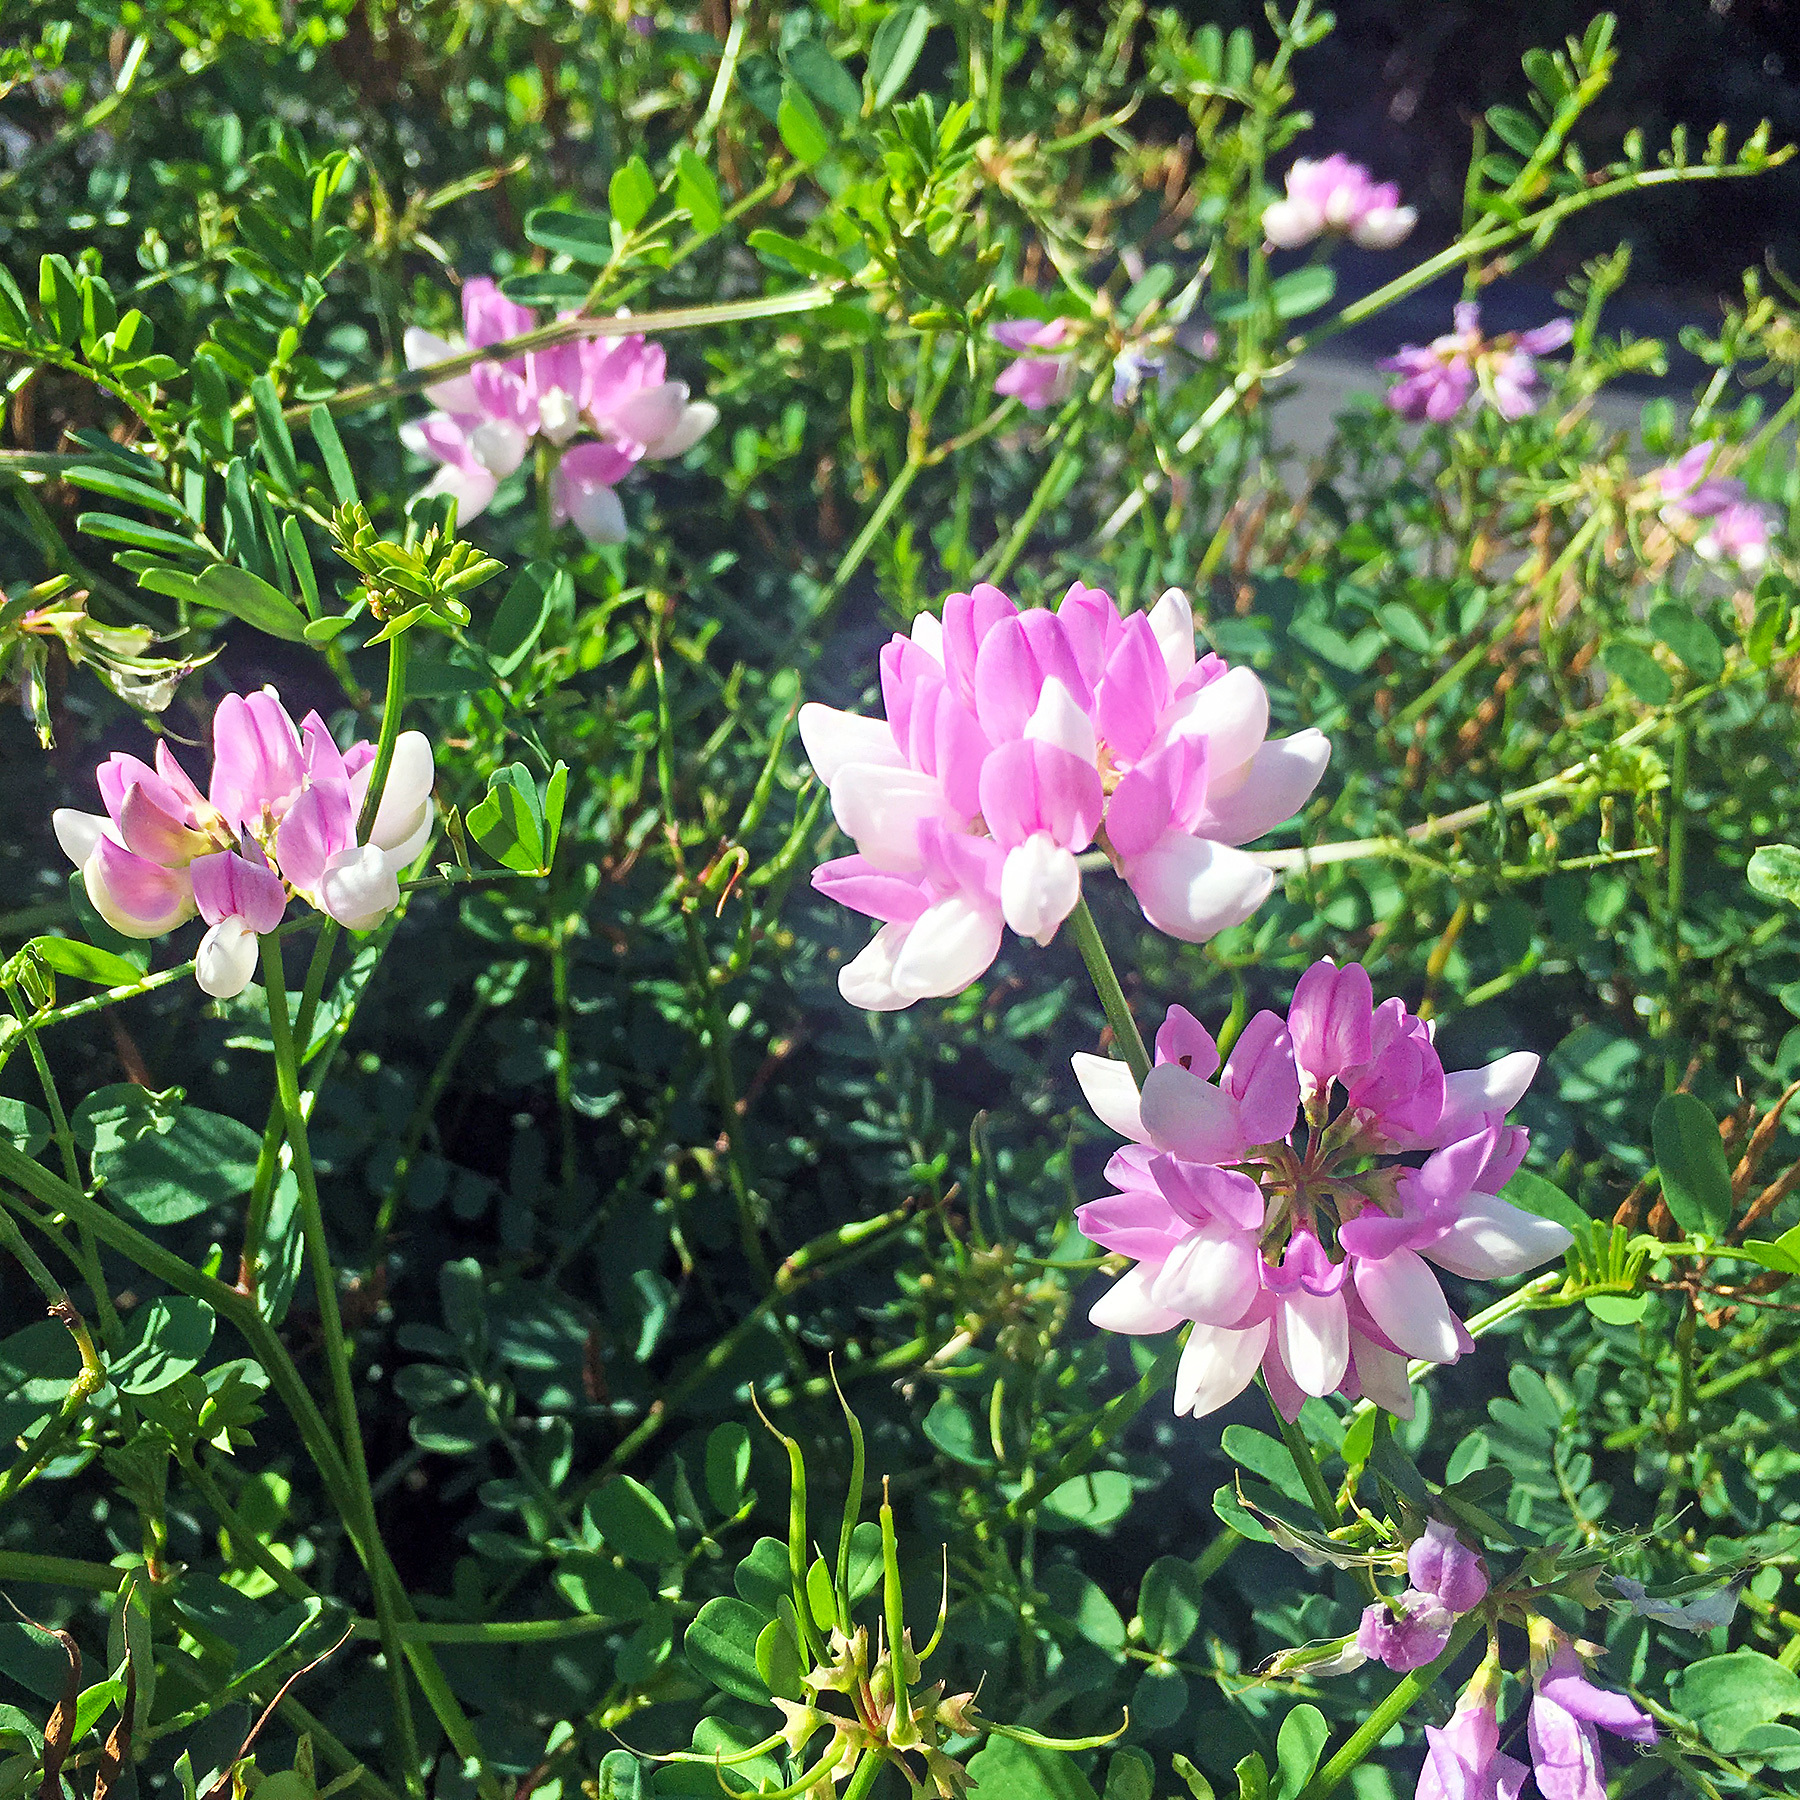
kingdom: Plantae
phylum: Tracheophyta
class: Magnoliopsida
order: Fabales
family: Fabaceae
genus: Coronilla
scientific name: Coronilla varia
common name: Crownvetch
